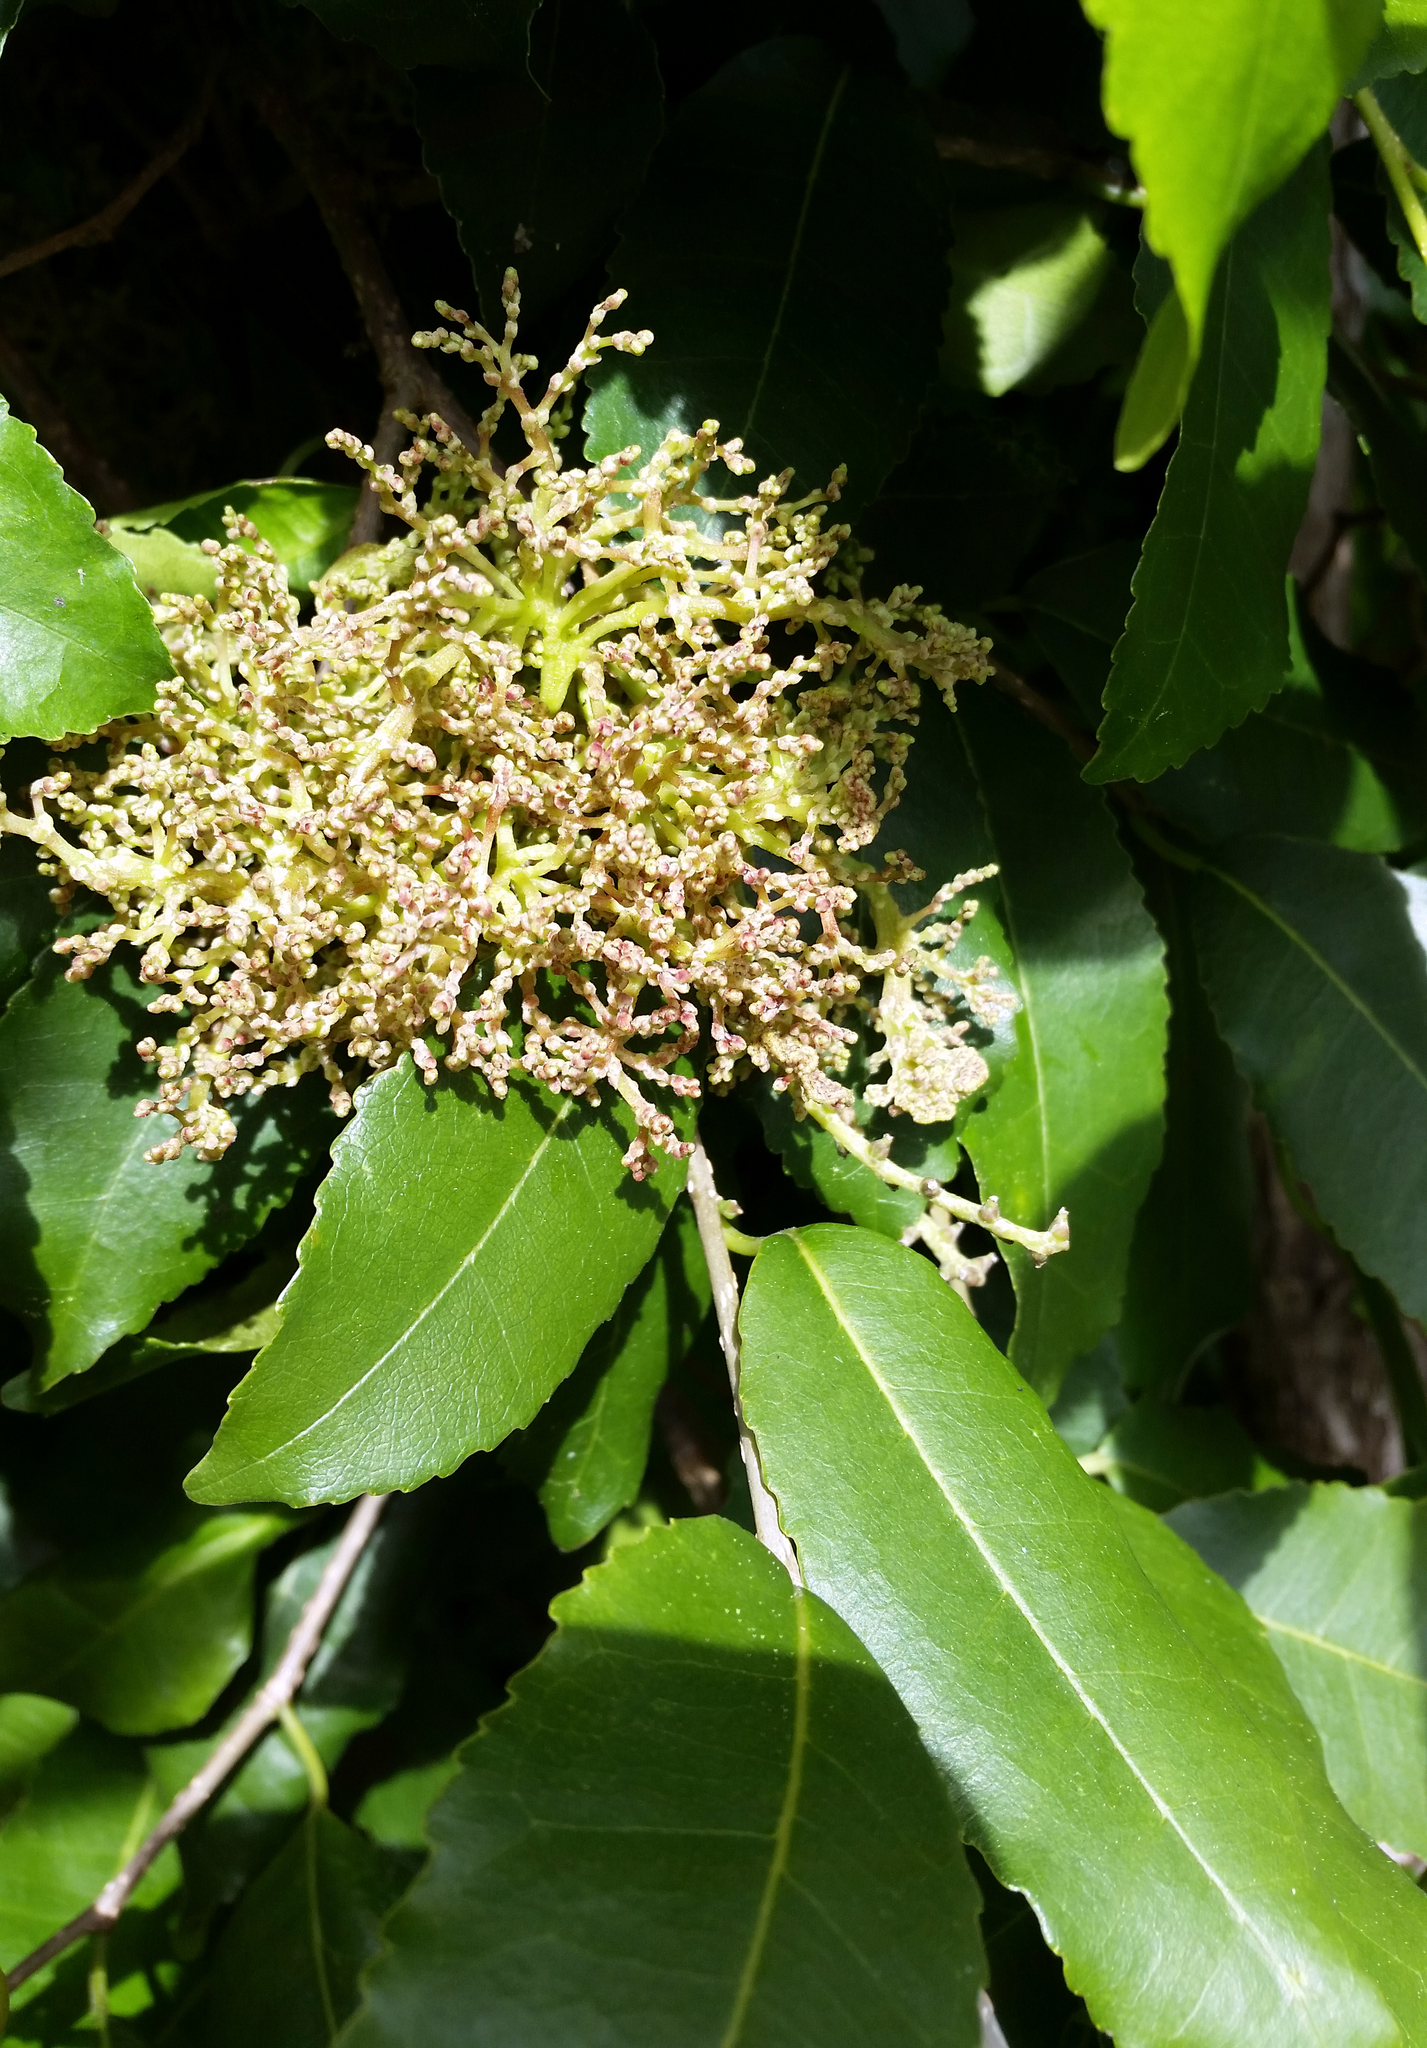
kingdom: Animalia
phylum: Arthropoda
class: Arachnida
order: Trombidiformes
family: Eriophyidae
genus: Eriophyes
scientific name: Eriophyes
